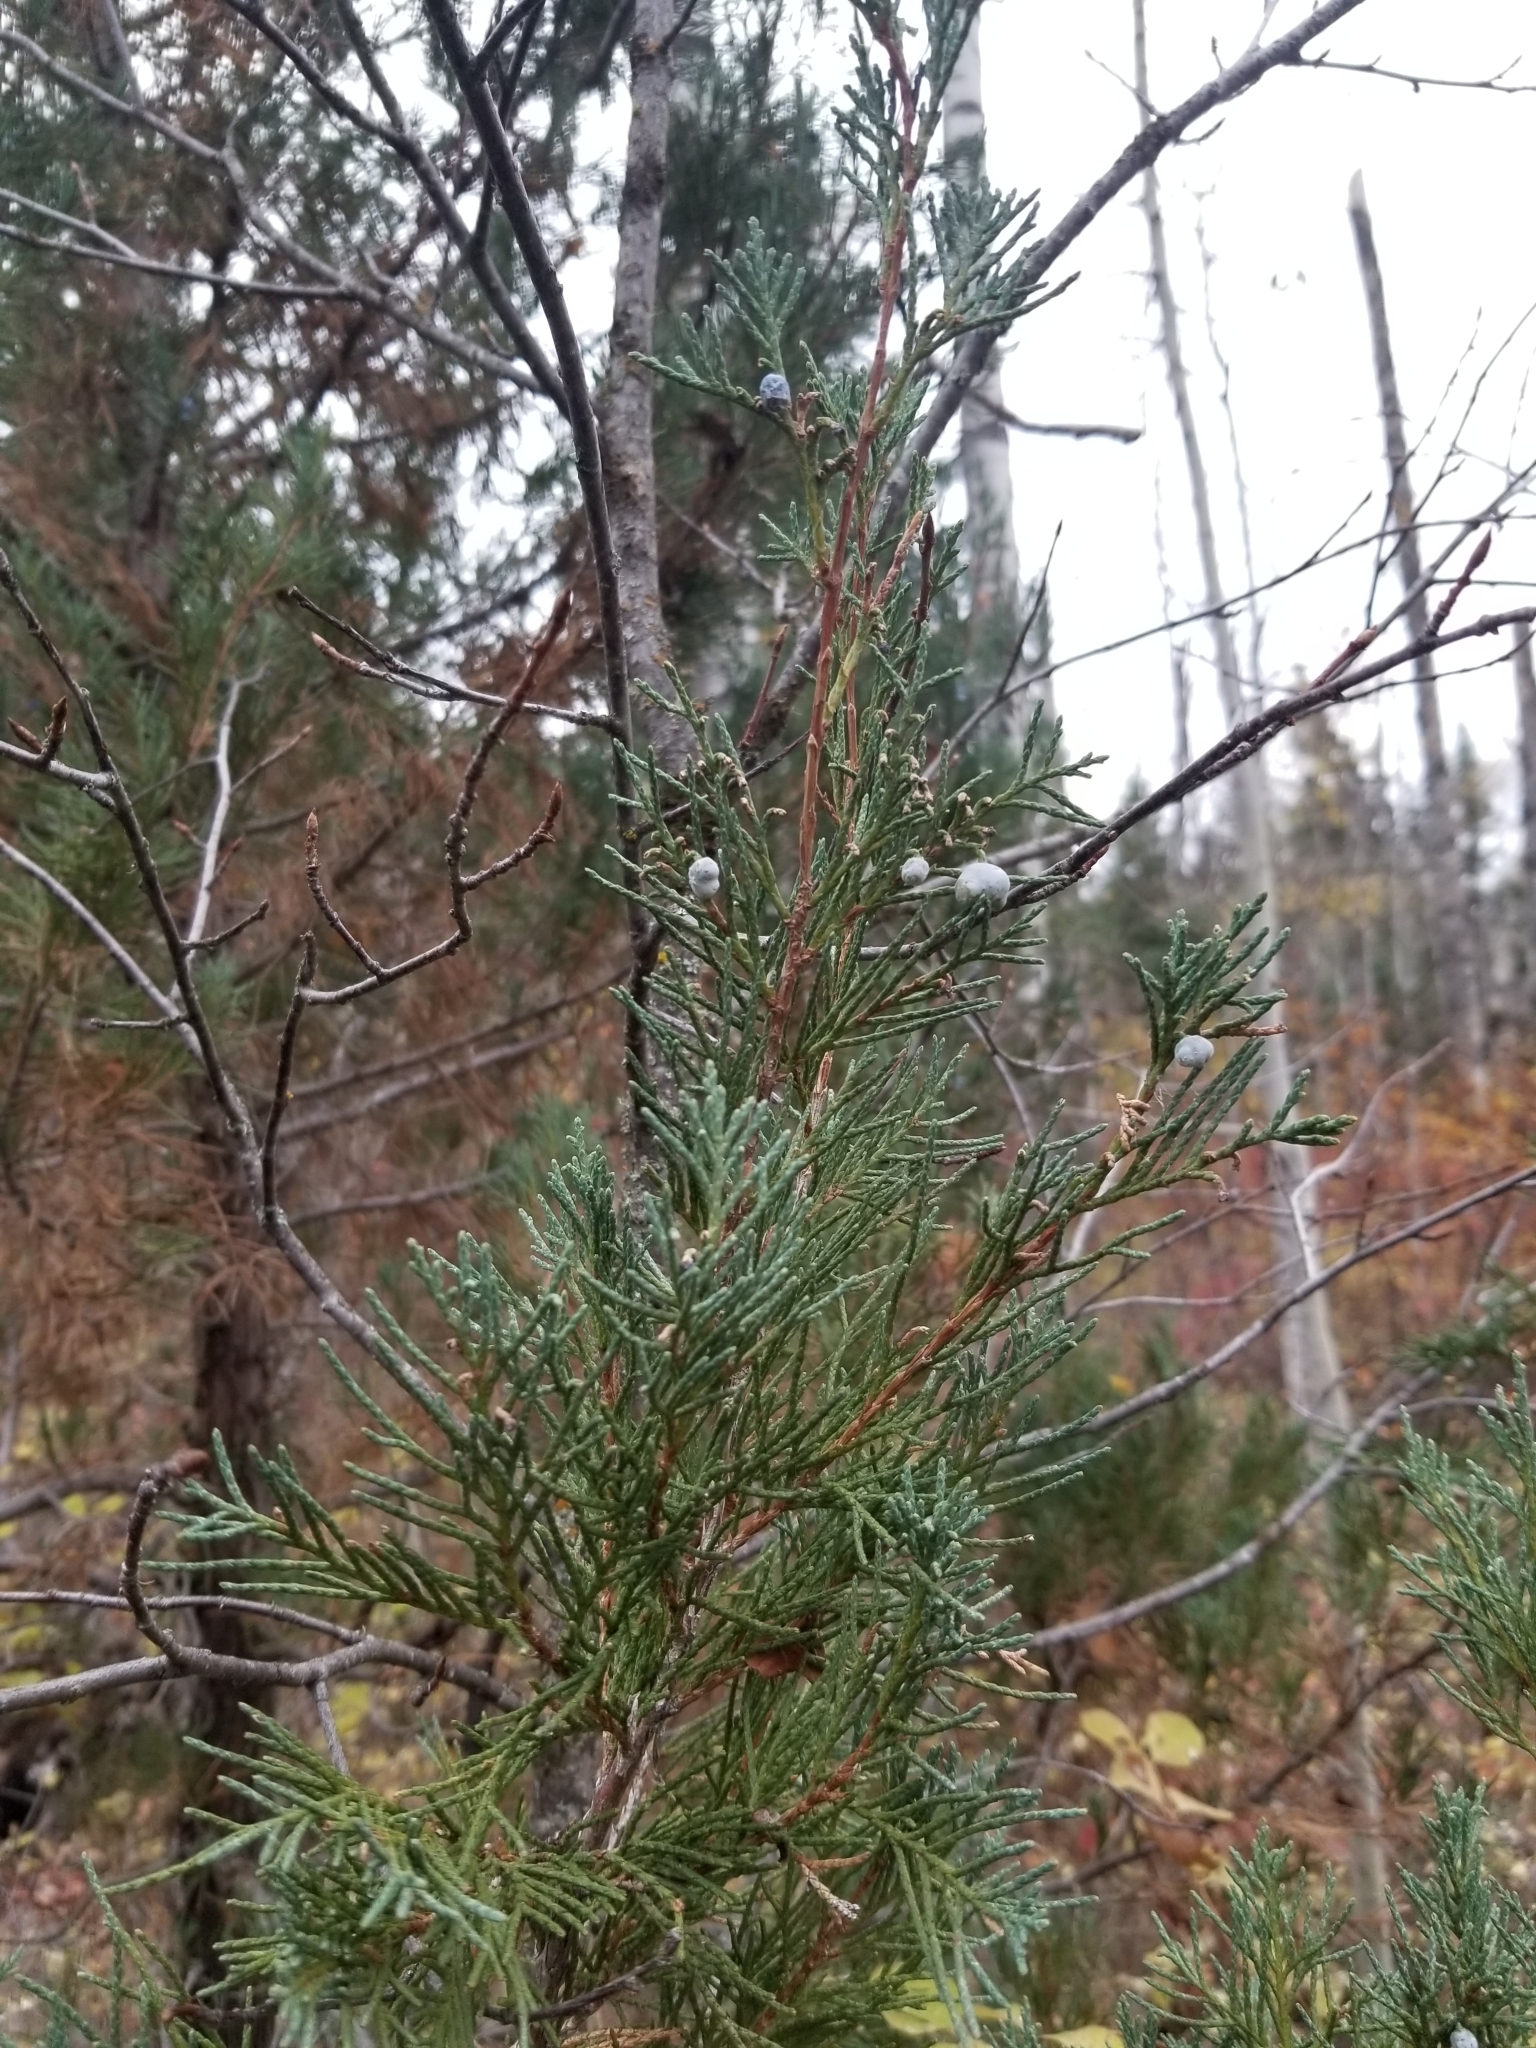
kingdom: Plantae
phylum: Tracheophyta
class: Pinopsida
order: Pinales
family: Cupressaceae
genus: Juniperus
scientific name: Juniperus scopulorum
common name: Rocky mountain juniper
